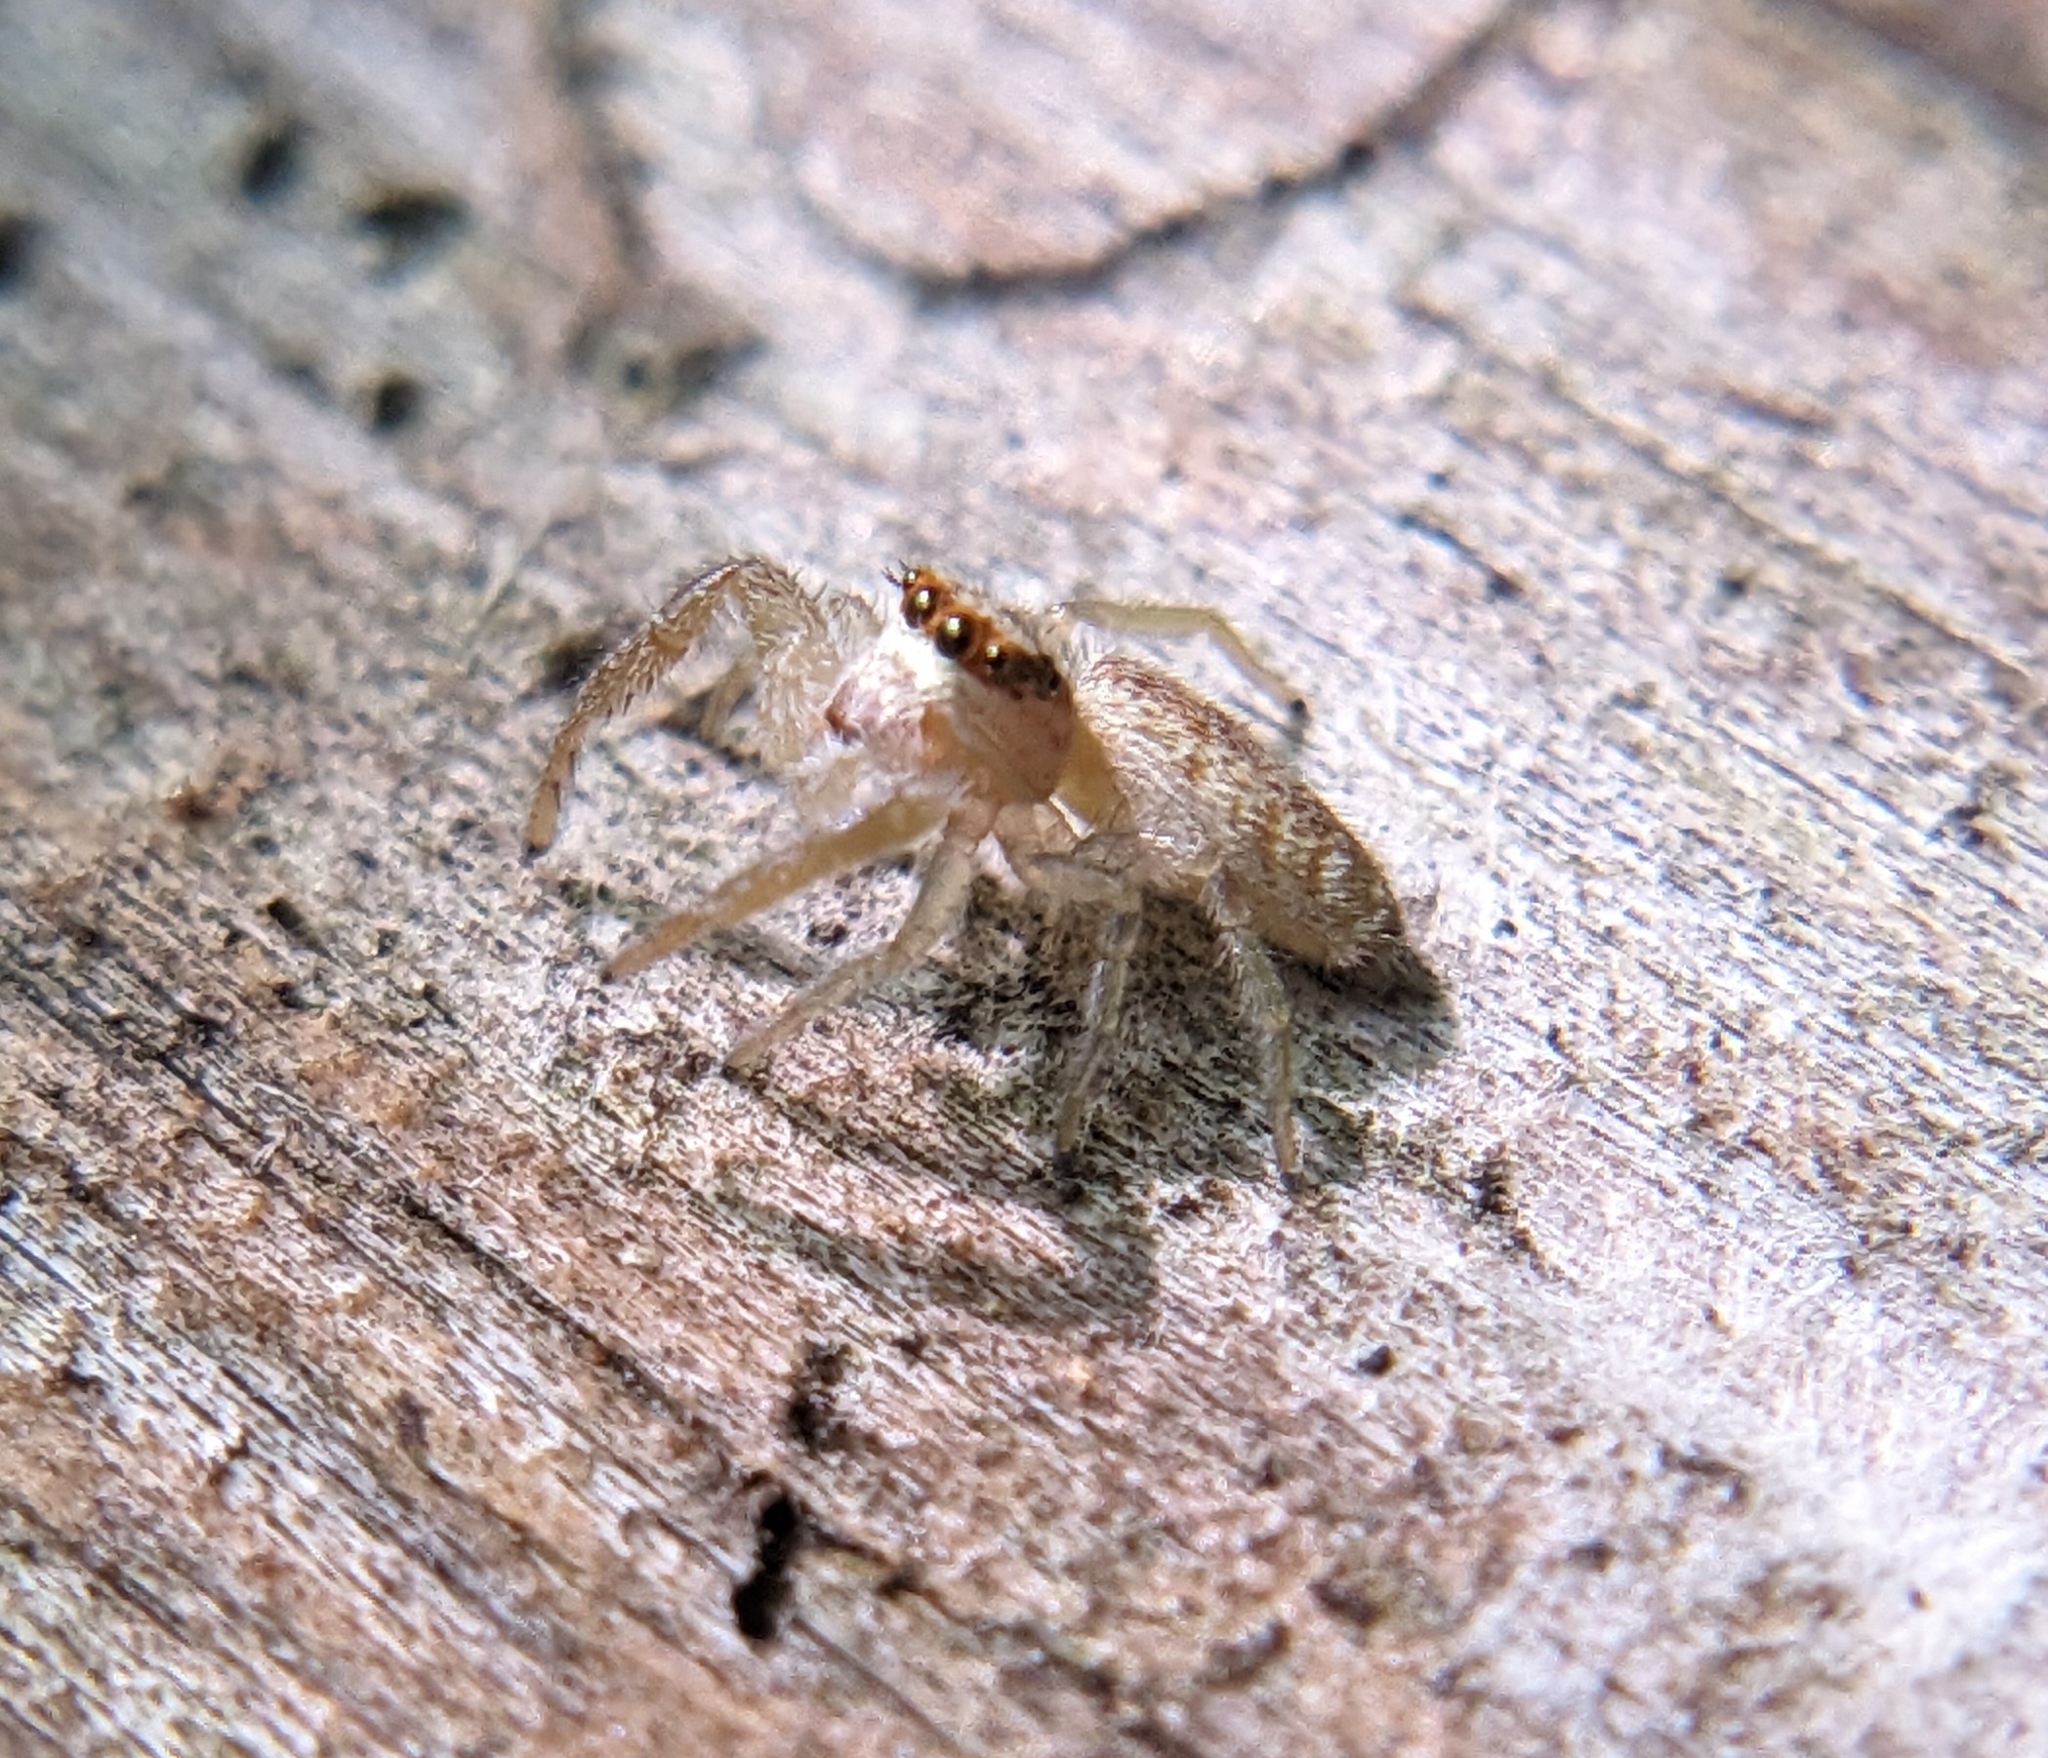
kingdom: Animalia
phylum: Arthropoda
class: Arachnida
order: Araneae
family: Salticidae
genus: Hentzia
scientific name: Hentzia mitrata
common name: White-jawed jumping spider
